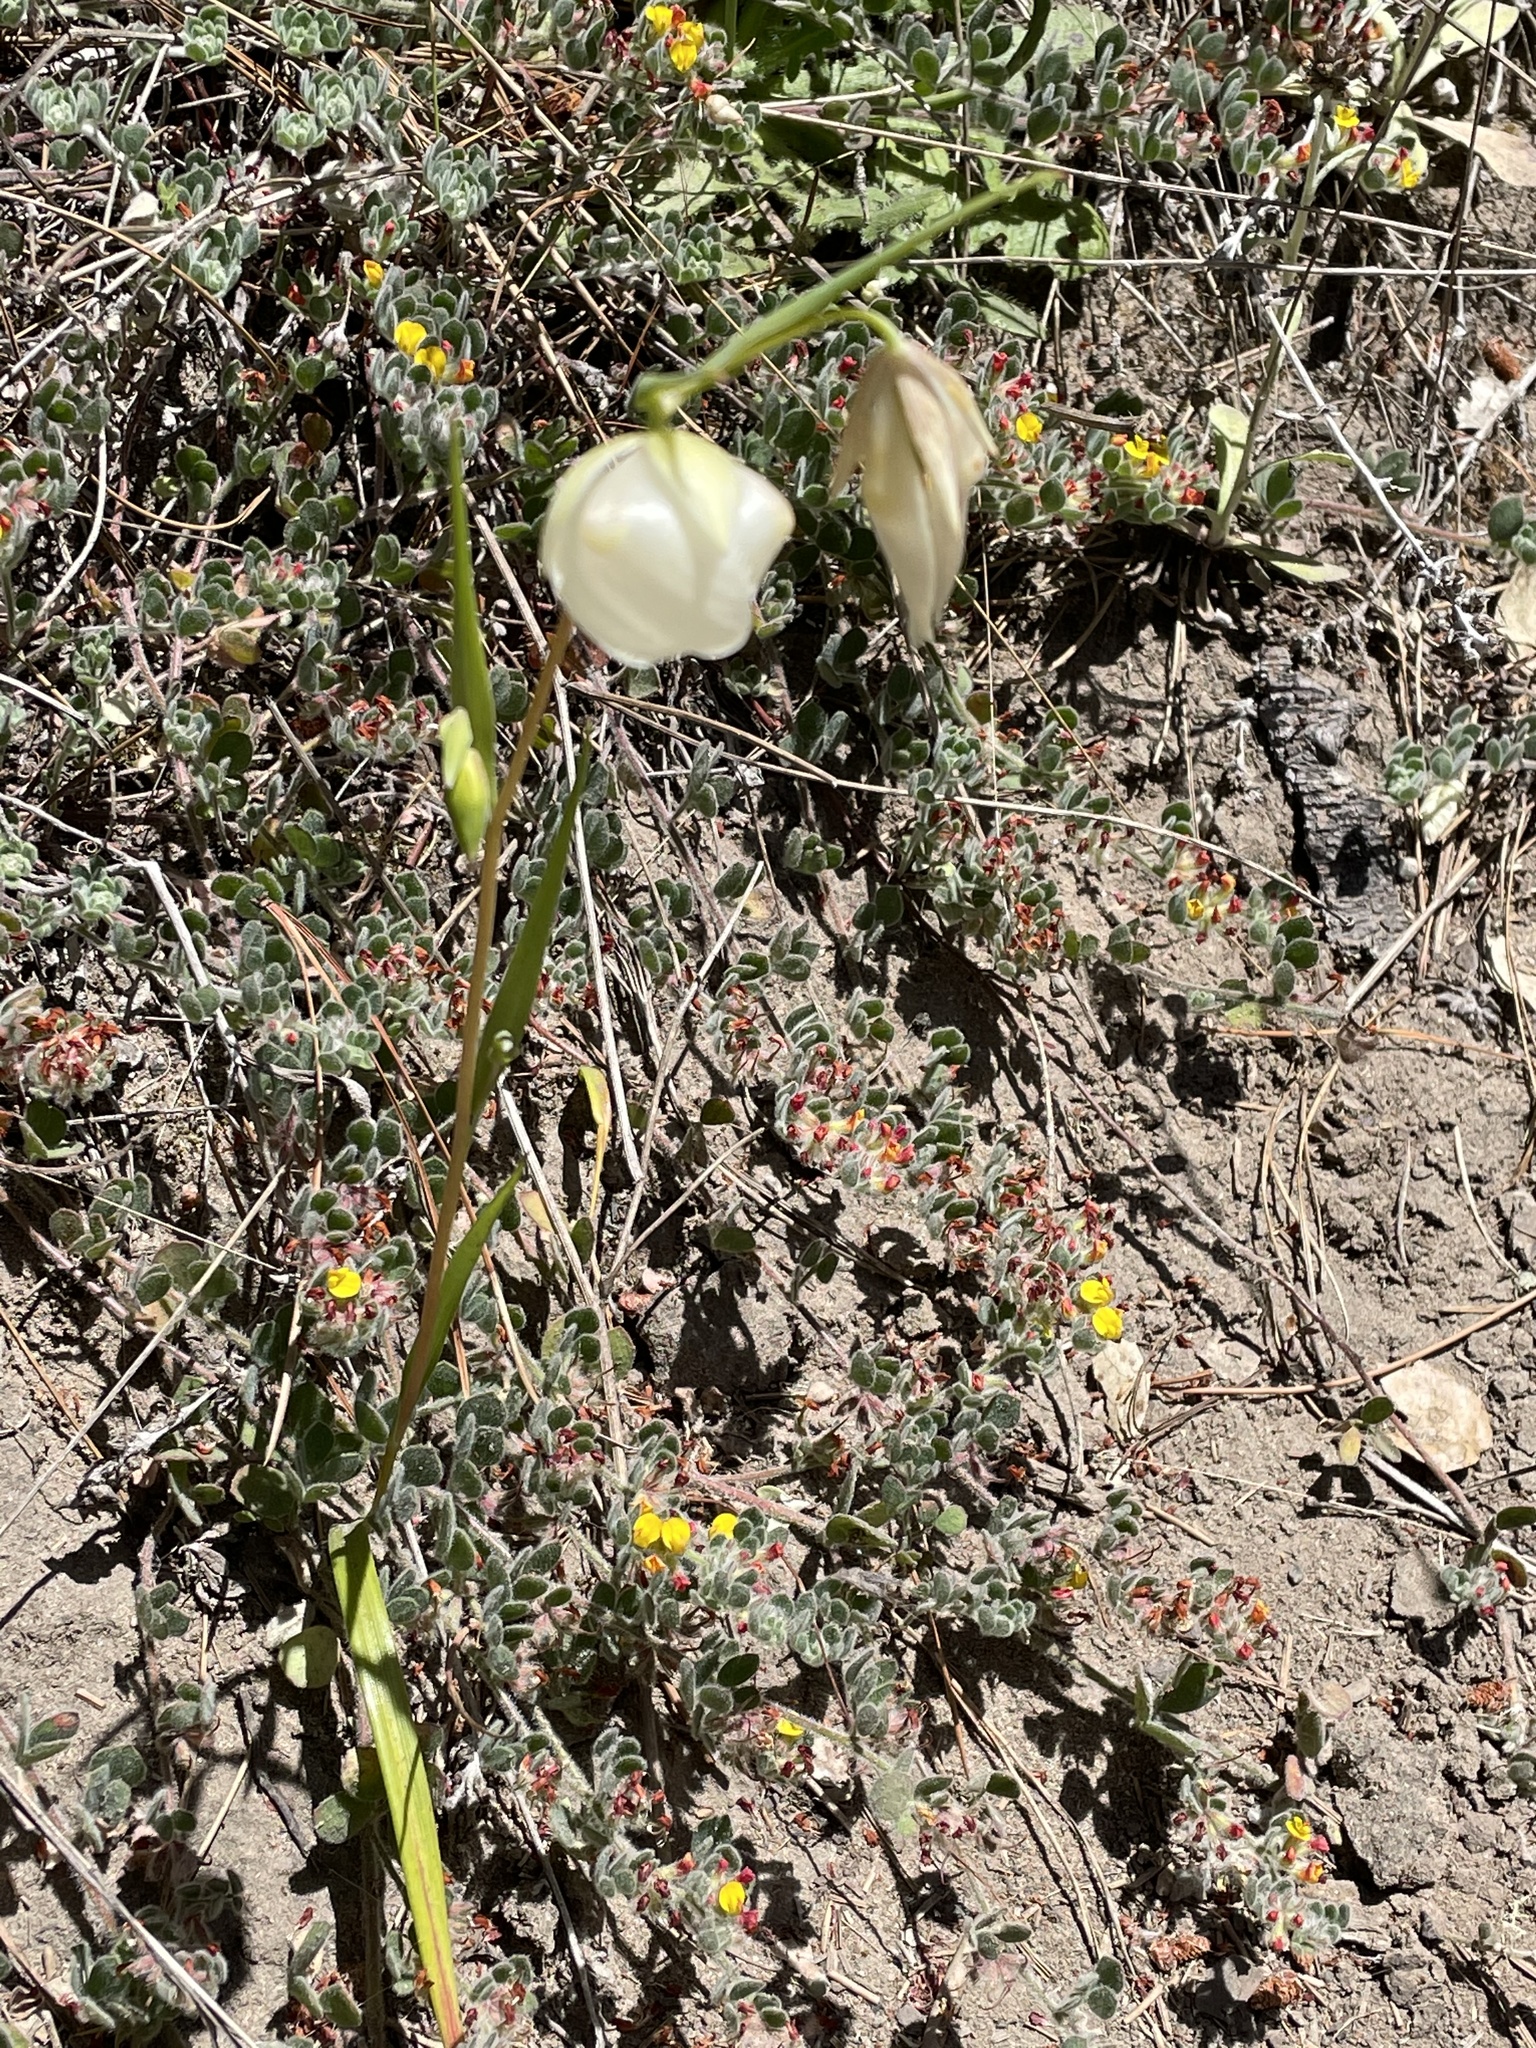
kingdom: Plantae
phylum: Tracheophyta
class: Liliopsida
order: Liliales
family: Liliaceae
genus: Calochortus
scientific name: Calochortus albus
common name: Fairy-lantern
